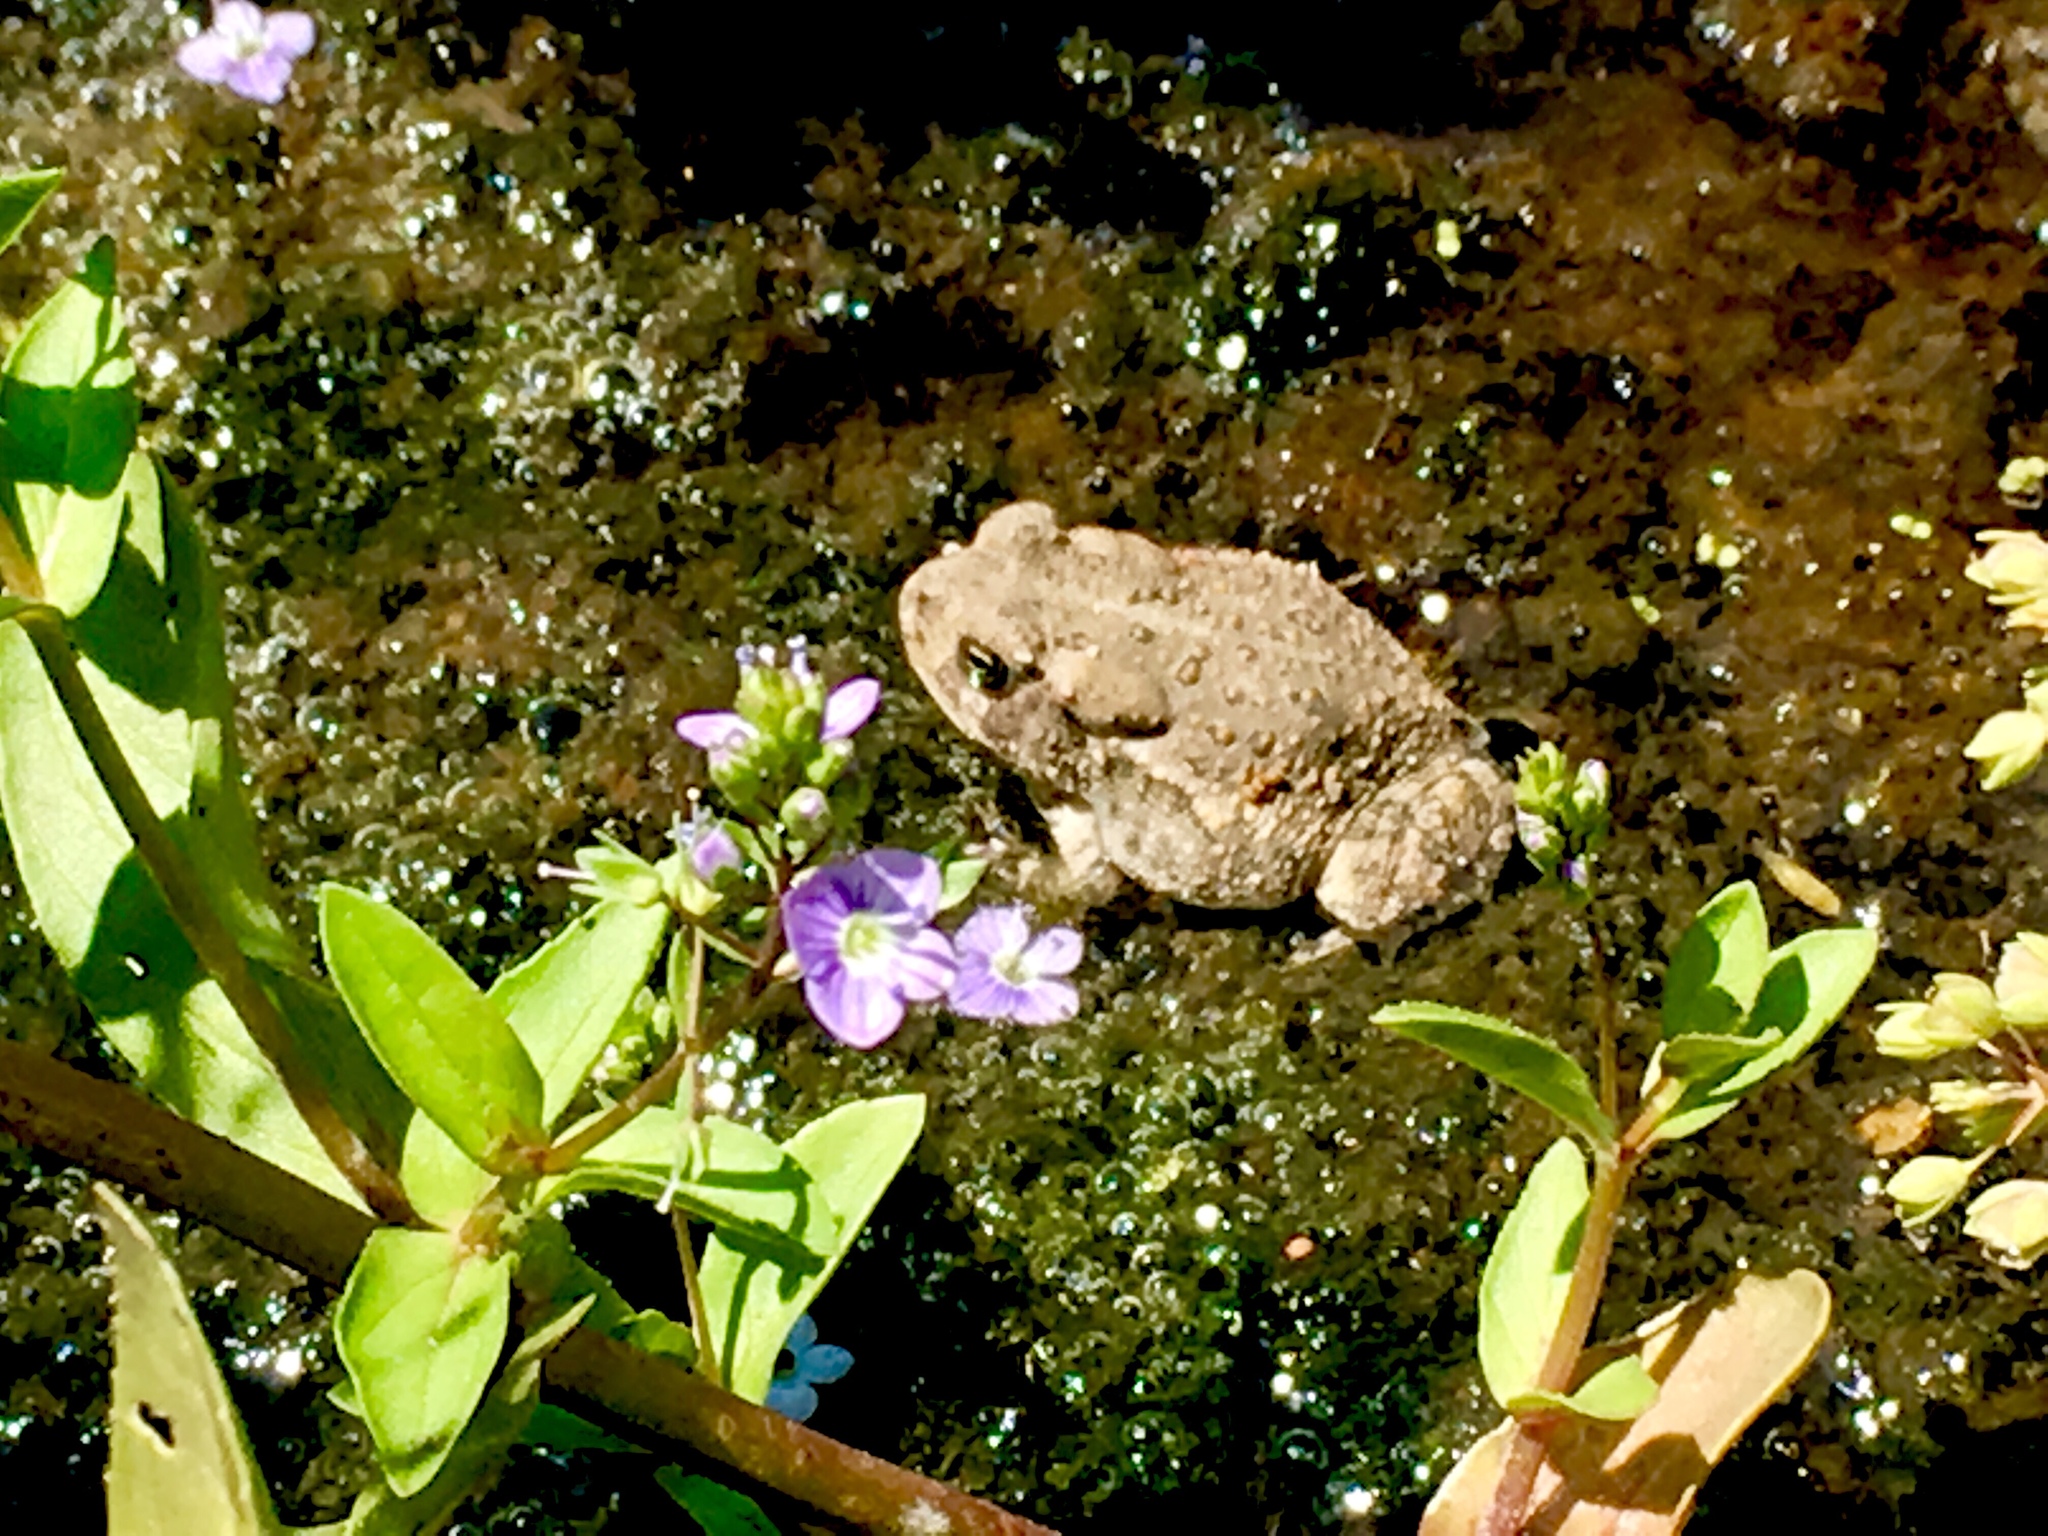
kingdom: Animalia
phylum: Chordata
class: Amphibia
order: Anura
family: Bufonidae
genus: Anaxyrus
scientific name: Anaxyrus woodhousii
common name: Woodhouse's toad
